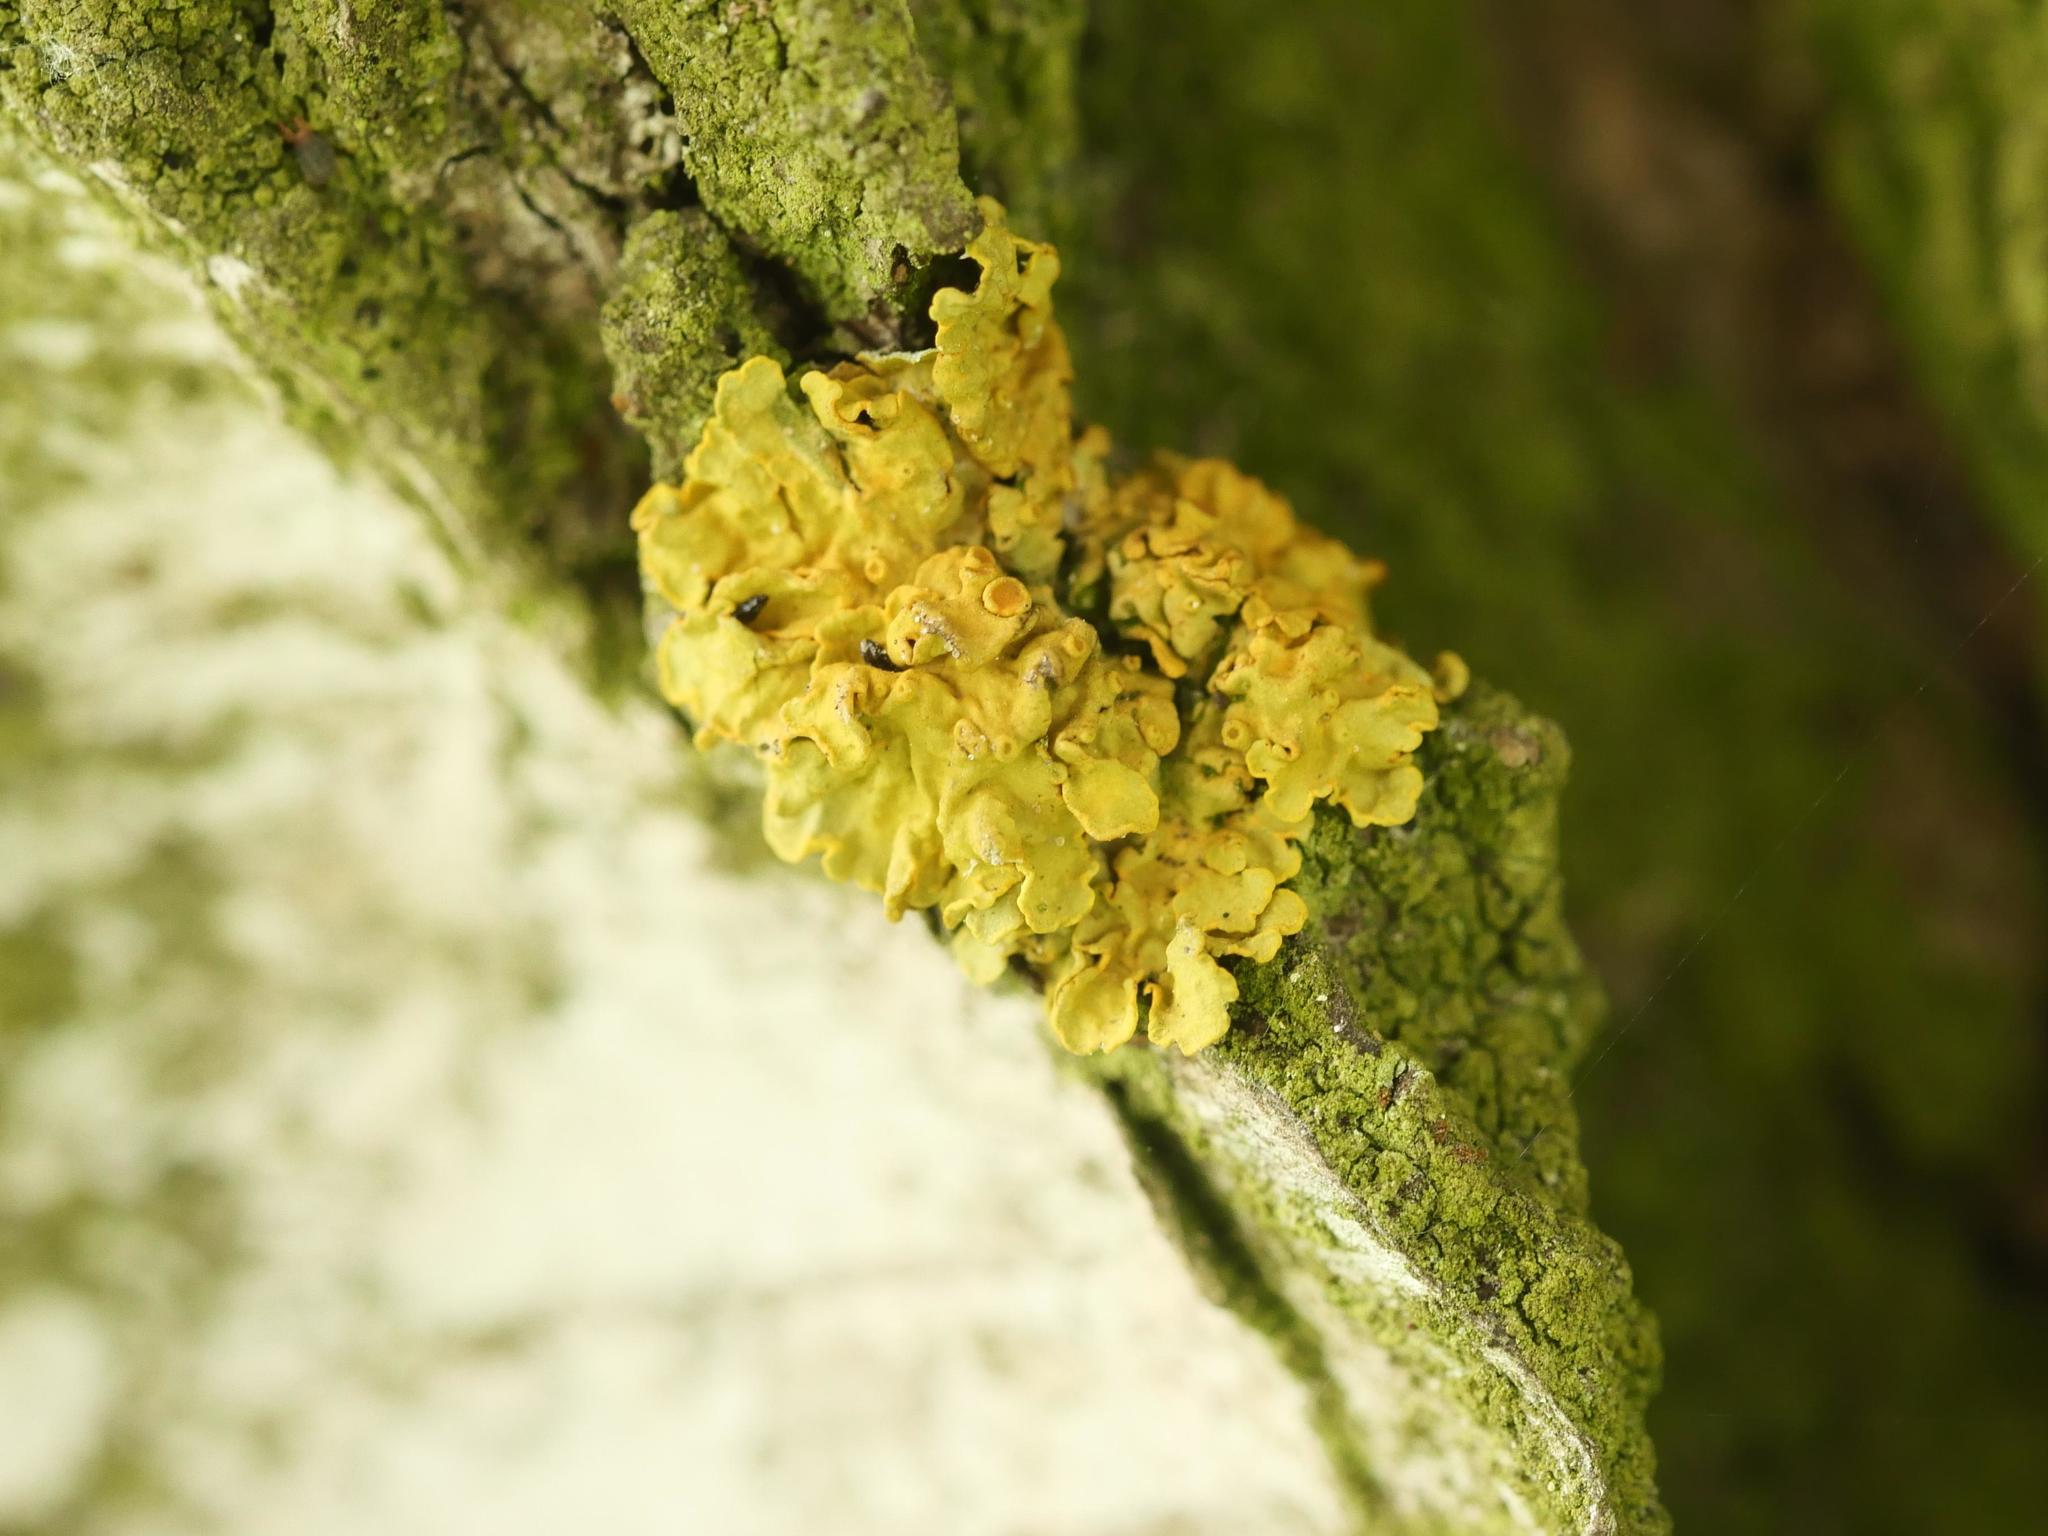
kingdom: Fungi
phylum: Ascomycota
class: Lecanoromycetes
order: Teloschistales
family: Teloschistaceae
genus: Xanthoria
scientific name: Xanthoria parietina
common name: Common orange lichen
